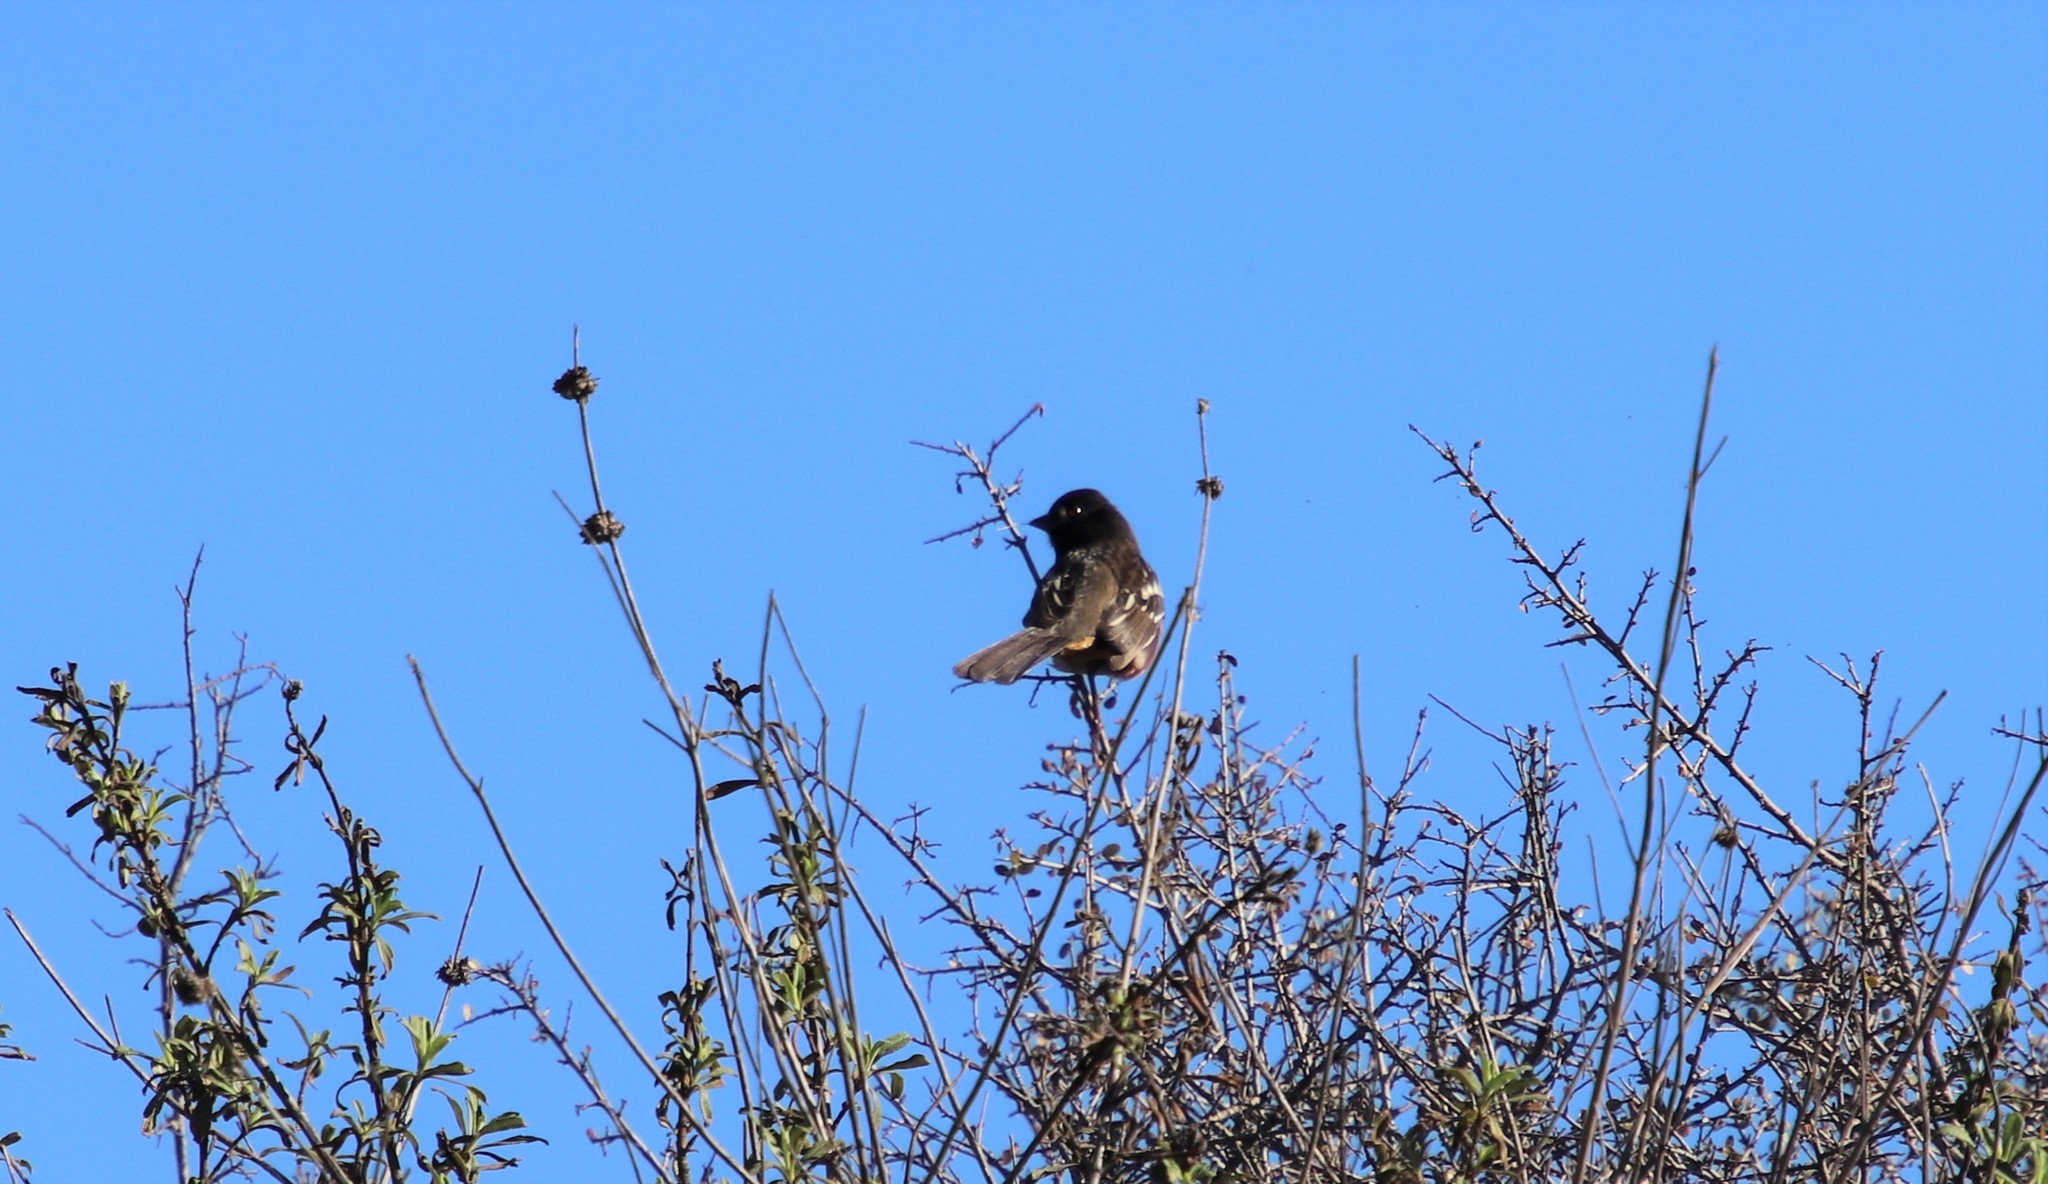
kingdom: Animalia
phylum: Chordata
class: Aves
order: Passeriformes
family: Passerellidae
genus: Pipilo
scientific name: Pipilo maculatus
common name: Spotted towhee
